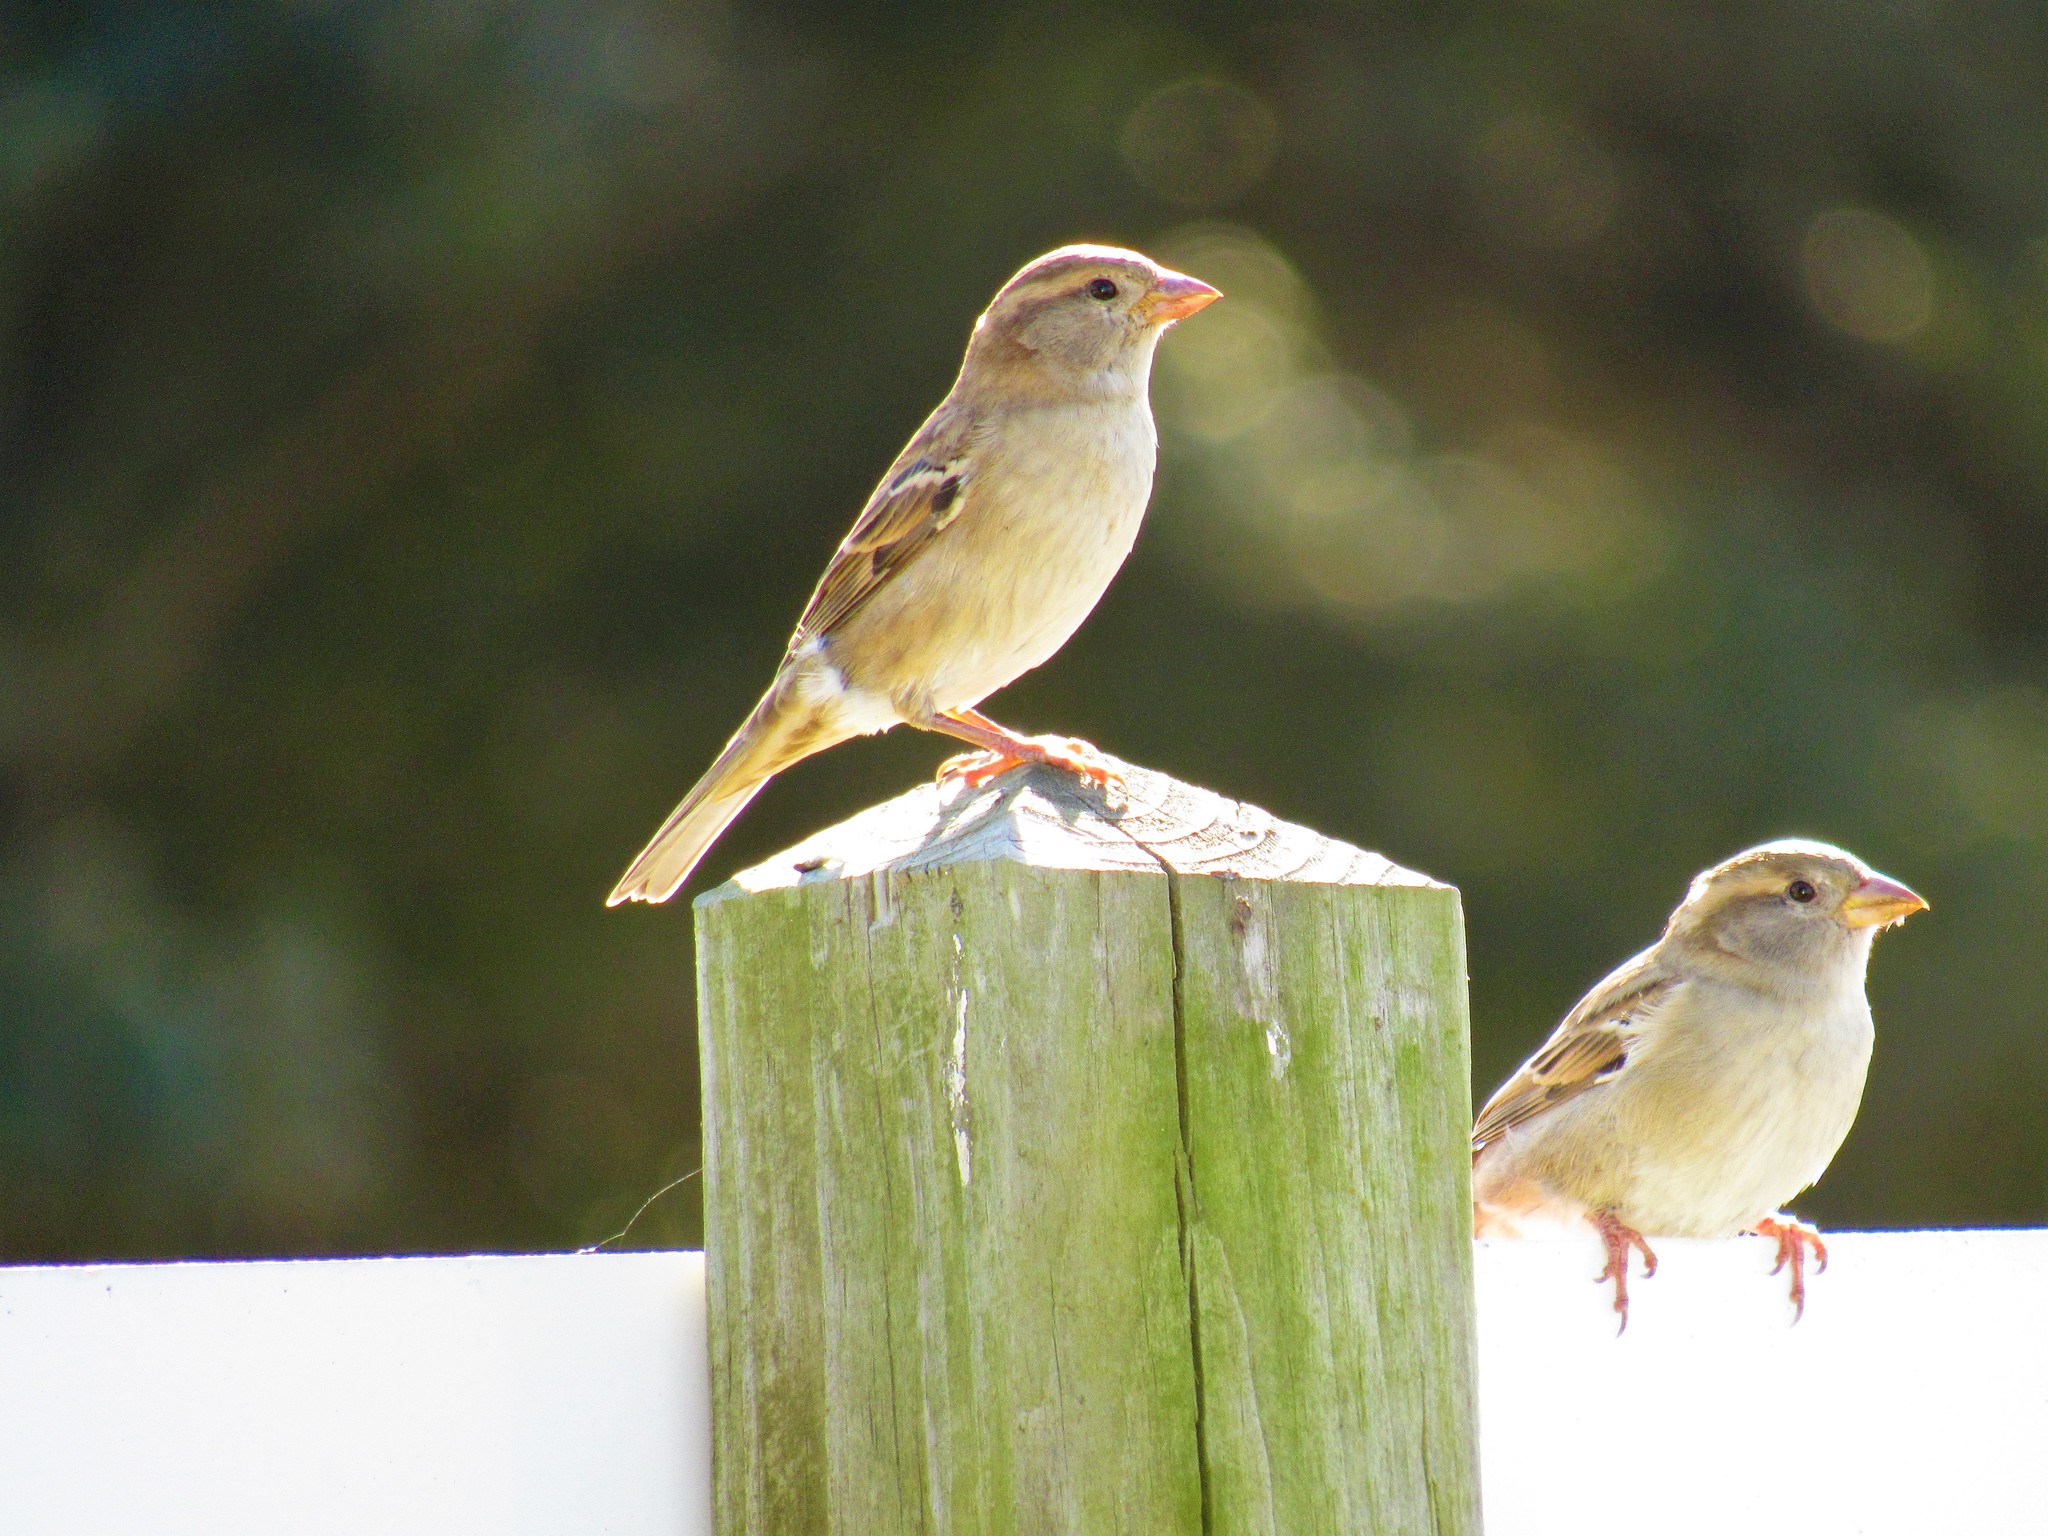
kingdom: Animalia
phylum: Chordata
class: Aves
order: Passeriformes
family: Passeridae
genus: Passer
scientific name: Passer domesticus
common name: House sparrow
